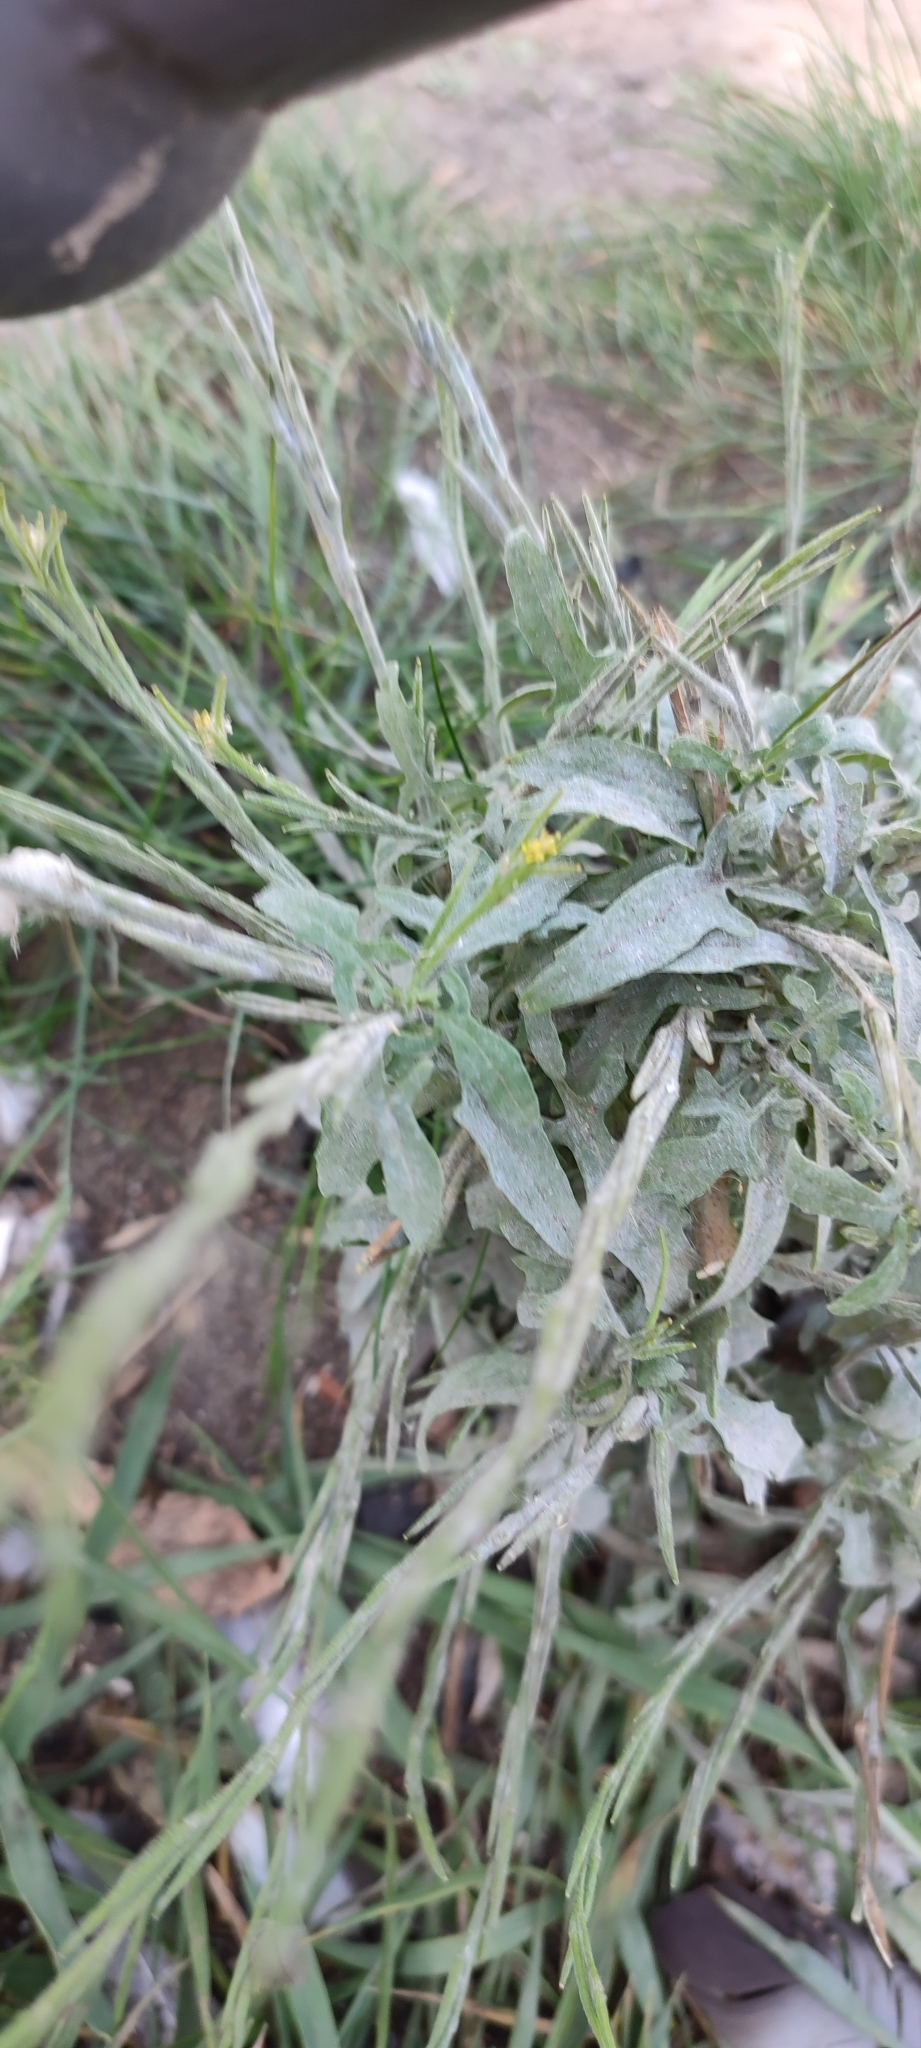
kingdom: Plantae
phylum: Tracheophyta
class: Magnoliopsida
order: Brassicales
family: Brassicaceae
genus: Sisymbrium
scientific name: Sisymbrium officinale
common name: Hedge mustard
